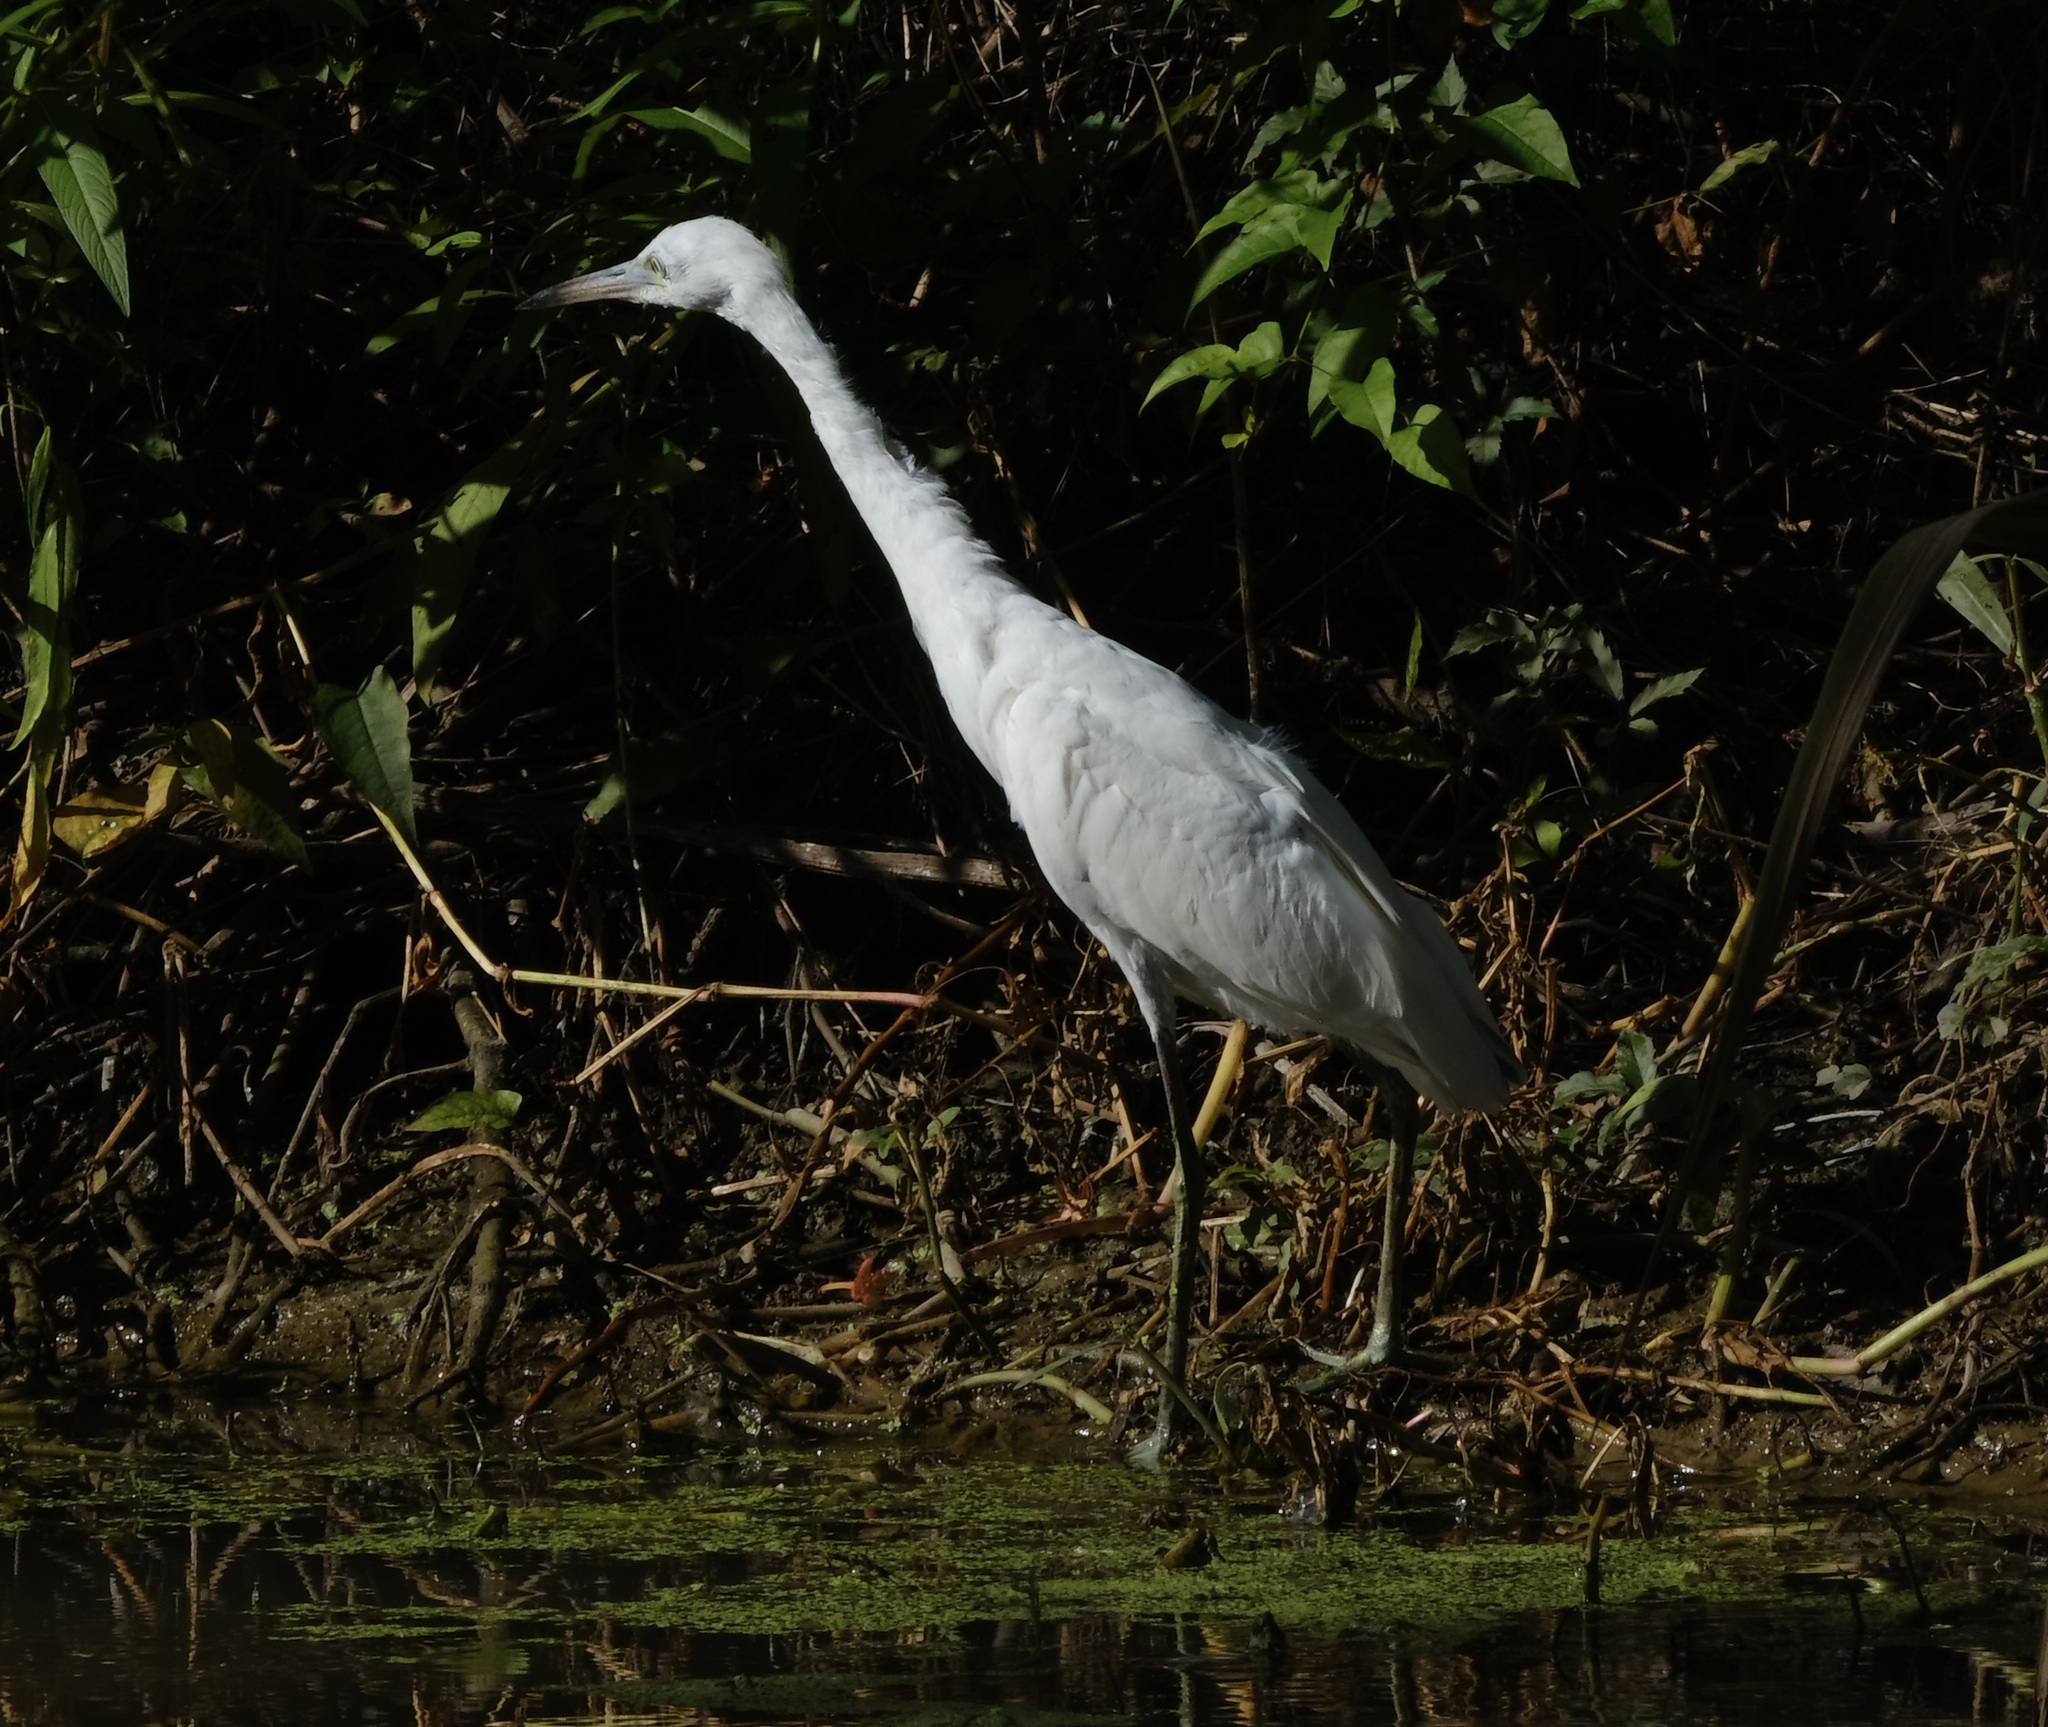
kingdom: Animalia
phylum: Chordata
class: Aves
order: Pelecaniformes
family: Ardeidae
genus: Egretta
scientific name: Egretta caerulea
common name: Little blue heron
